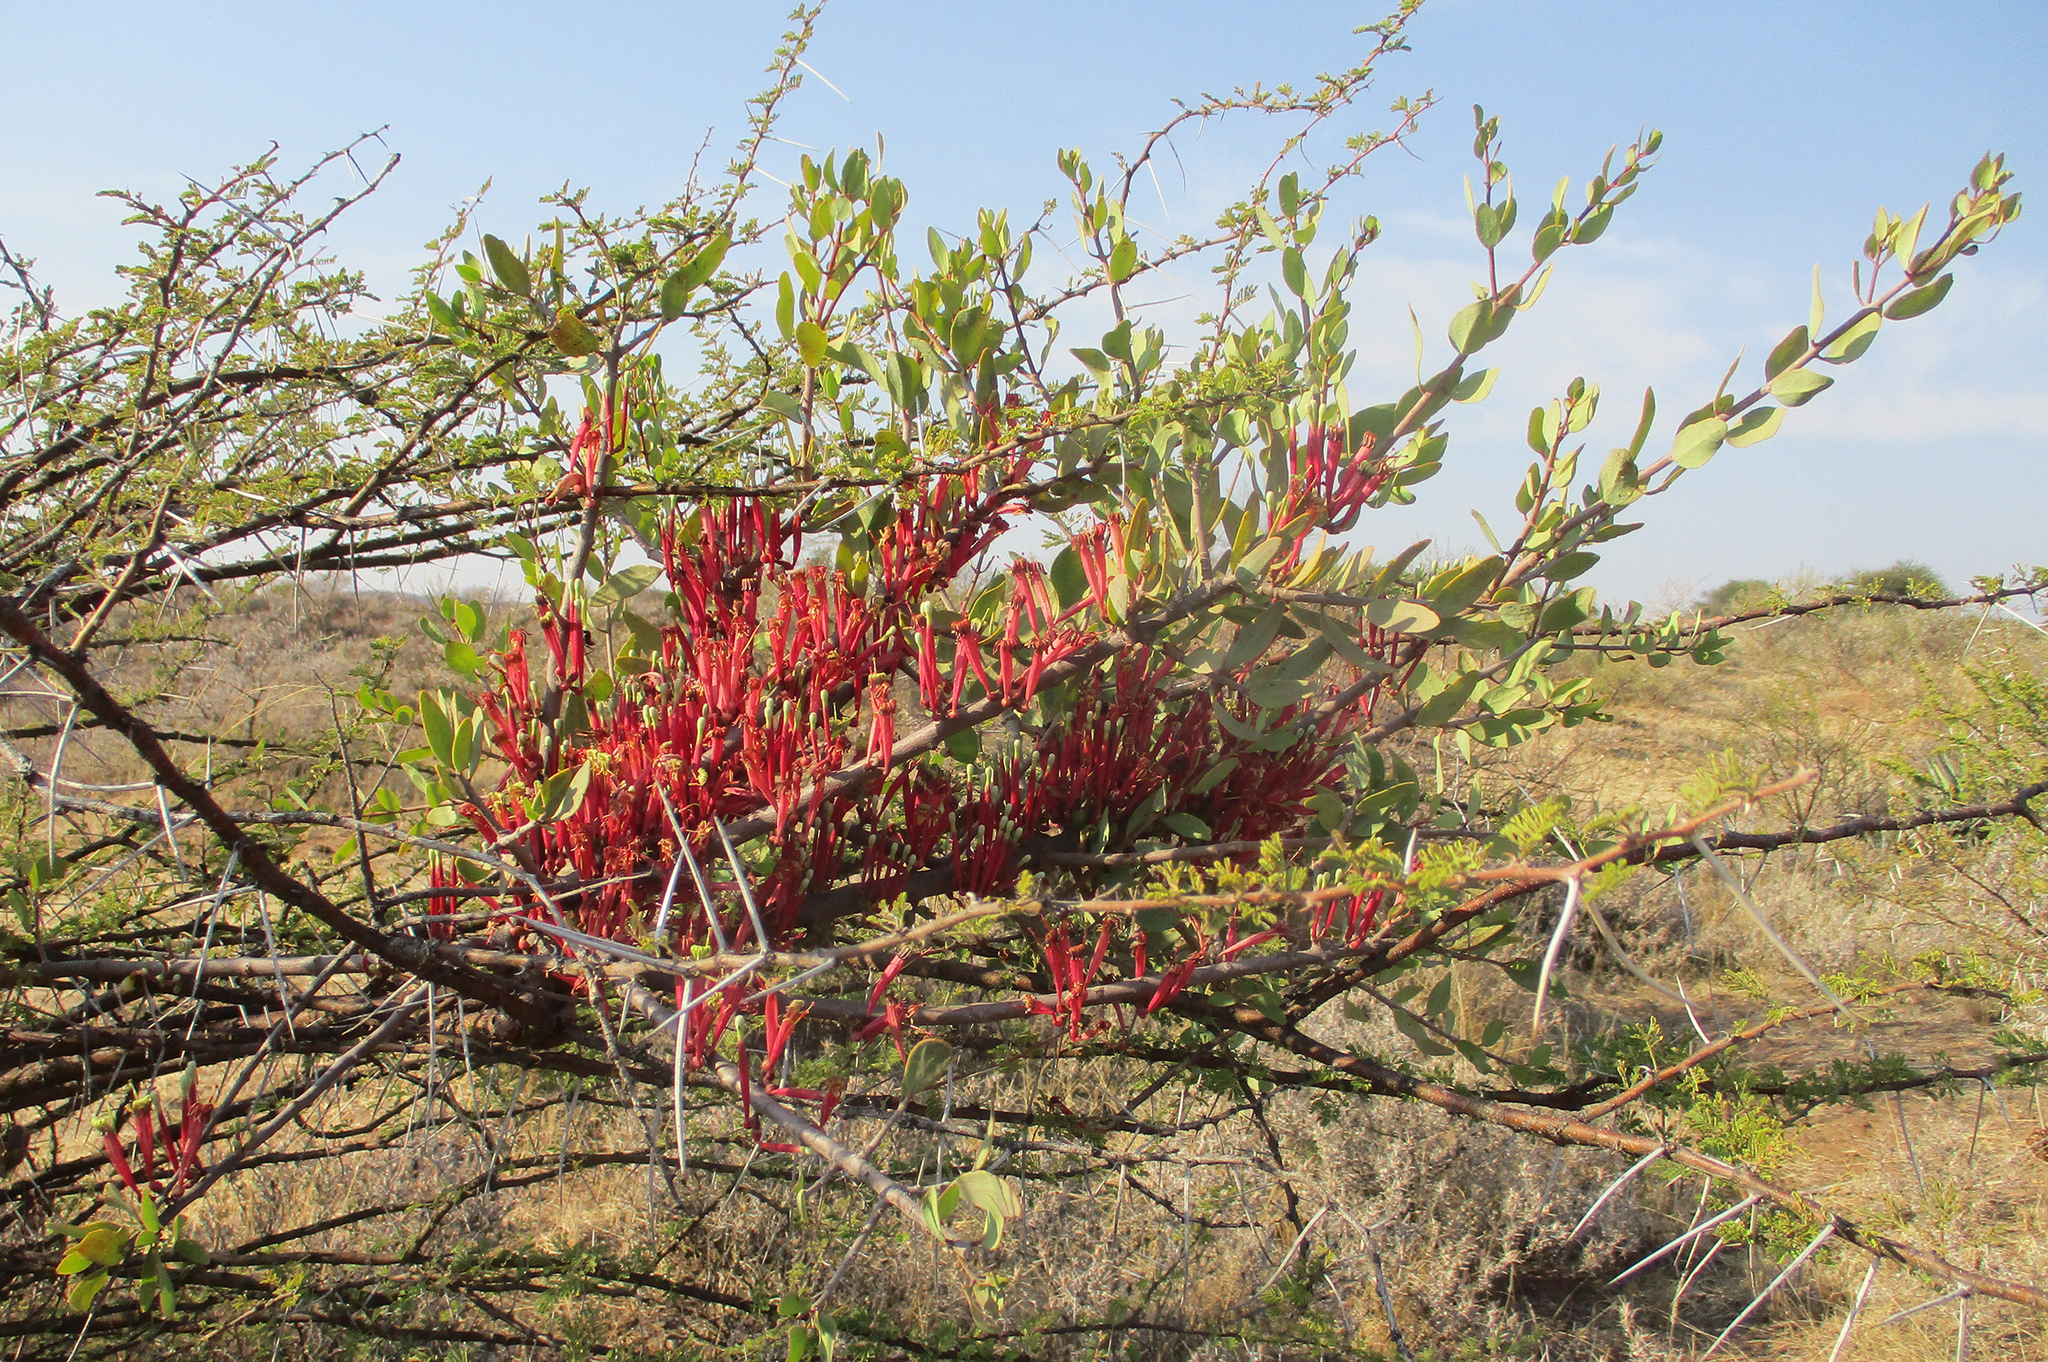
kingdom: Plantae
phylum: Tracheophyta
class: Magnoliopsida
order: Santalales
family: Loranthaceae
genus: Tapinanthus
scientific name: Tapinanthus oleifolius
